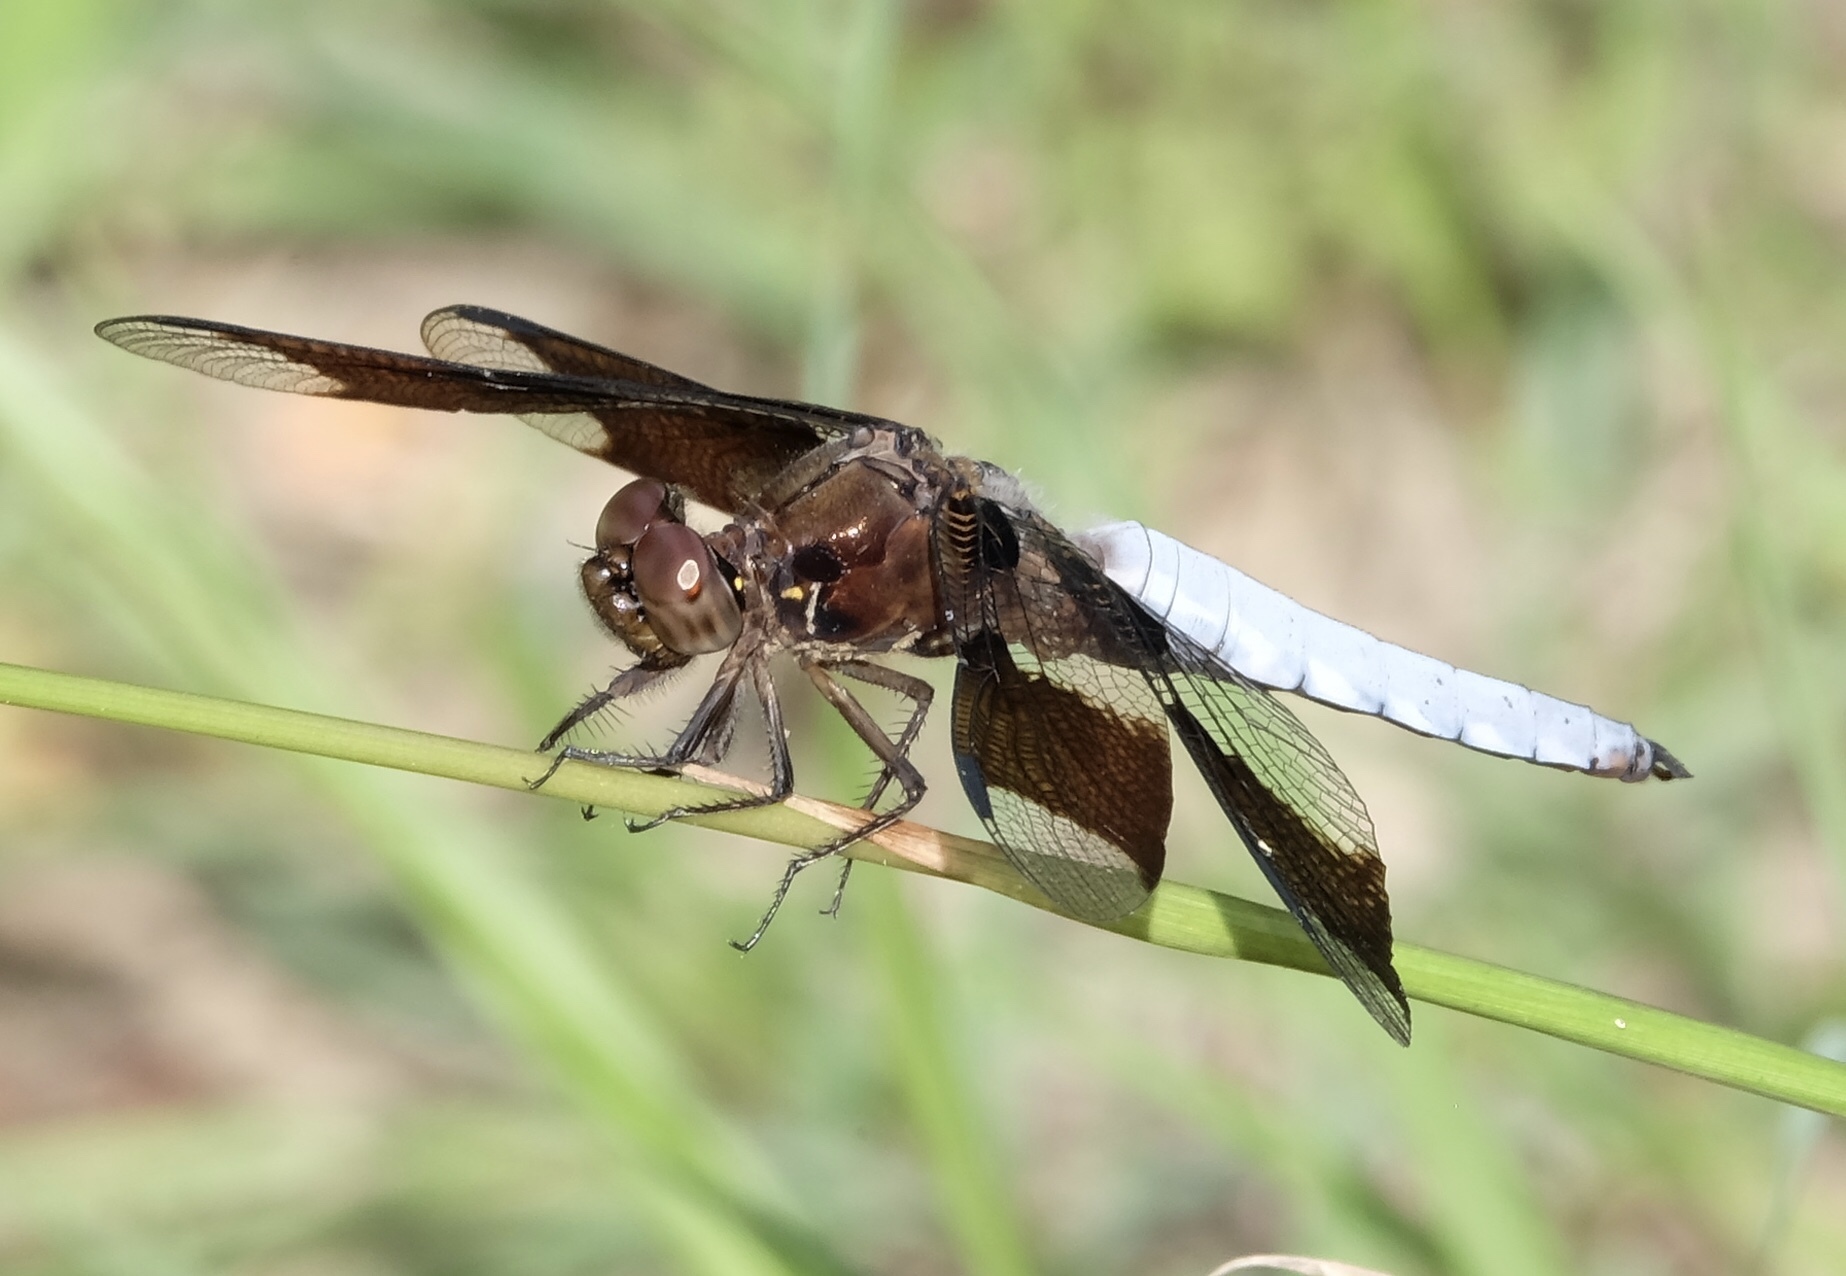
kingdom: Animalia
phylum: Arthropoda
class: Insecta
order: Odonata
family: Libellulidae
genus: Plathemis
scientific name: Plathemis lydia
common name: Common whitetail
